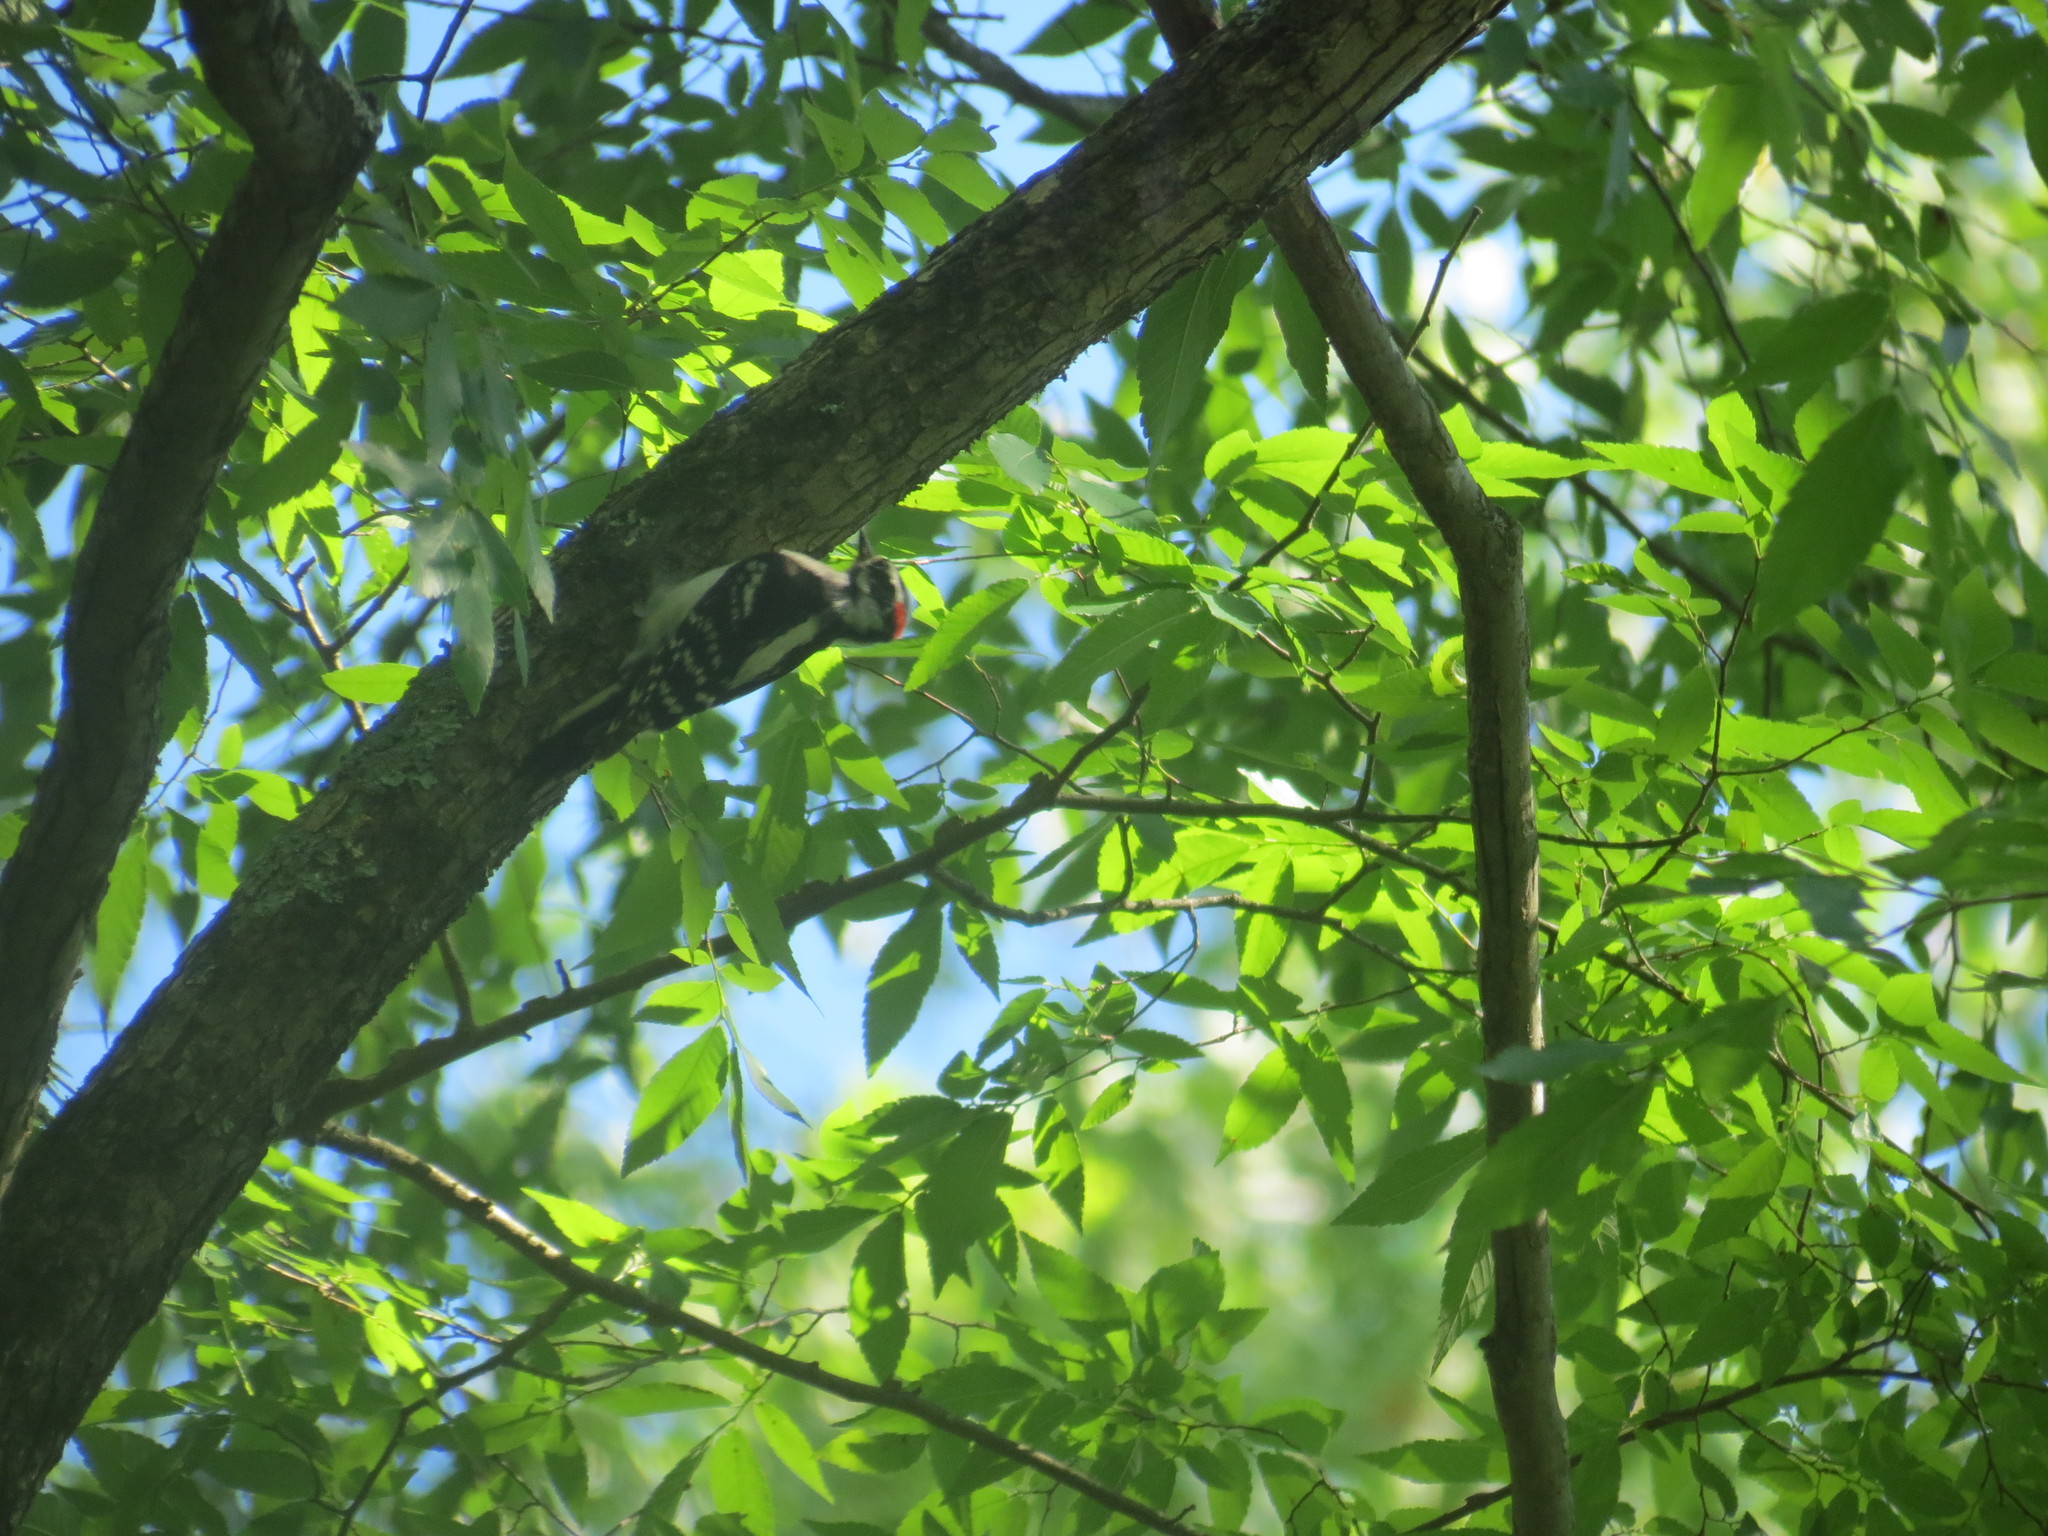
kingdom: Animalia
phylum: Chordata
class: Aves
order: Piciformes
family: Picidae
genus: Dryobates
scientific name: Dryobates pubescens
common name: Downy woodpecker
